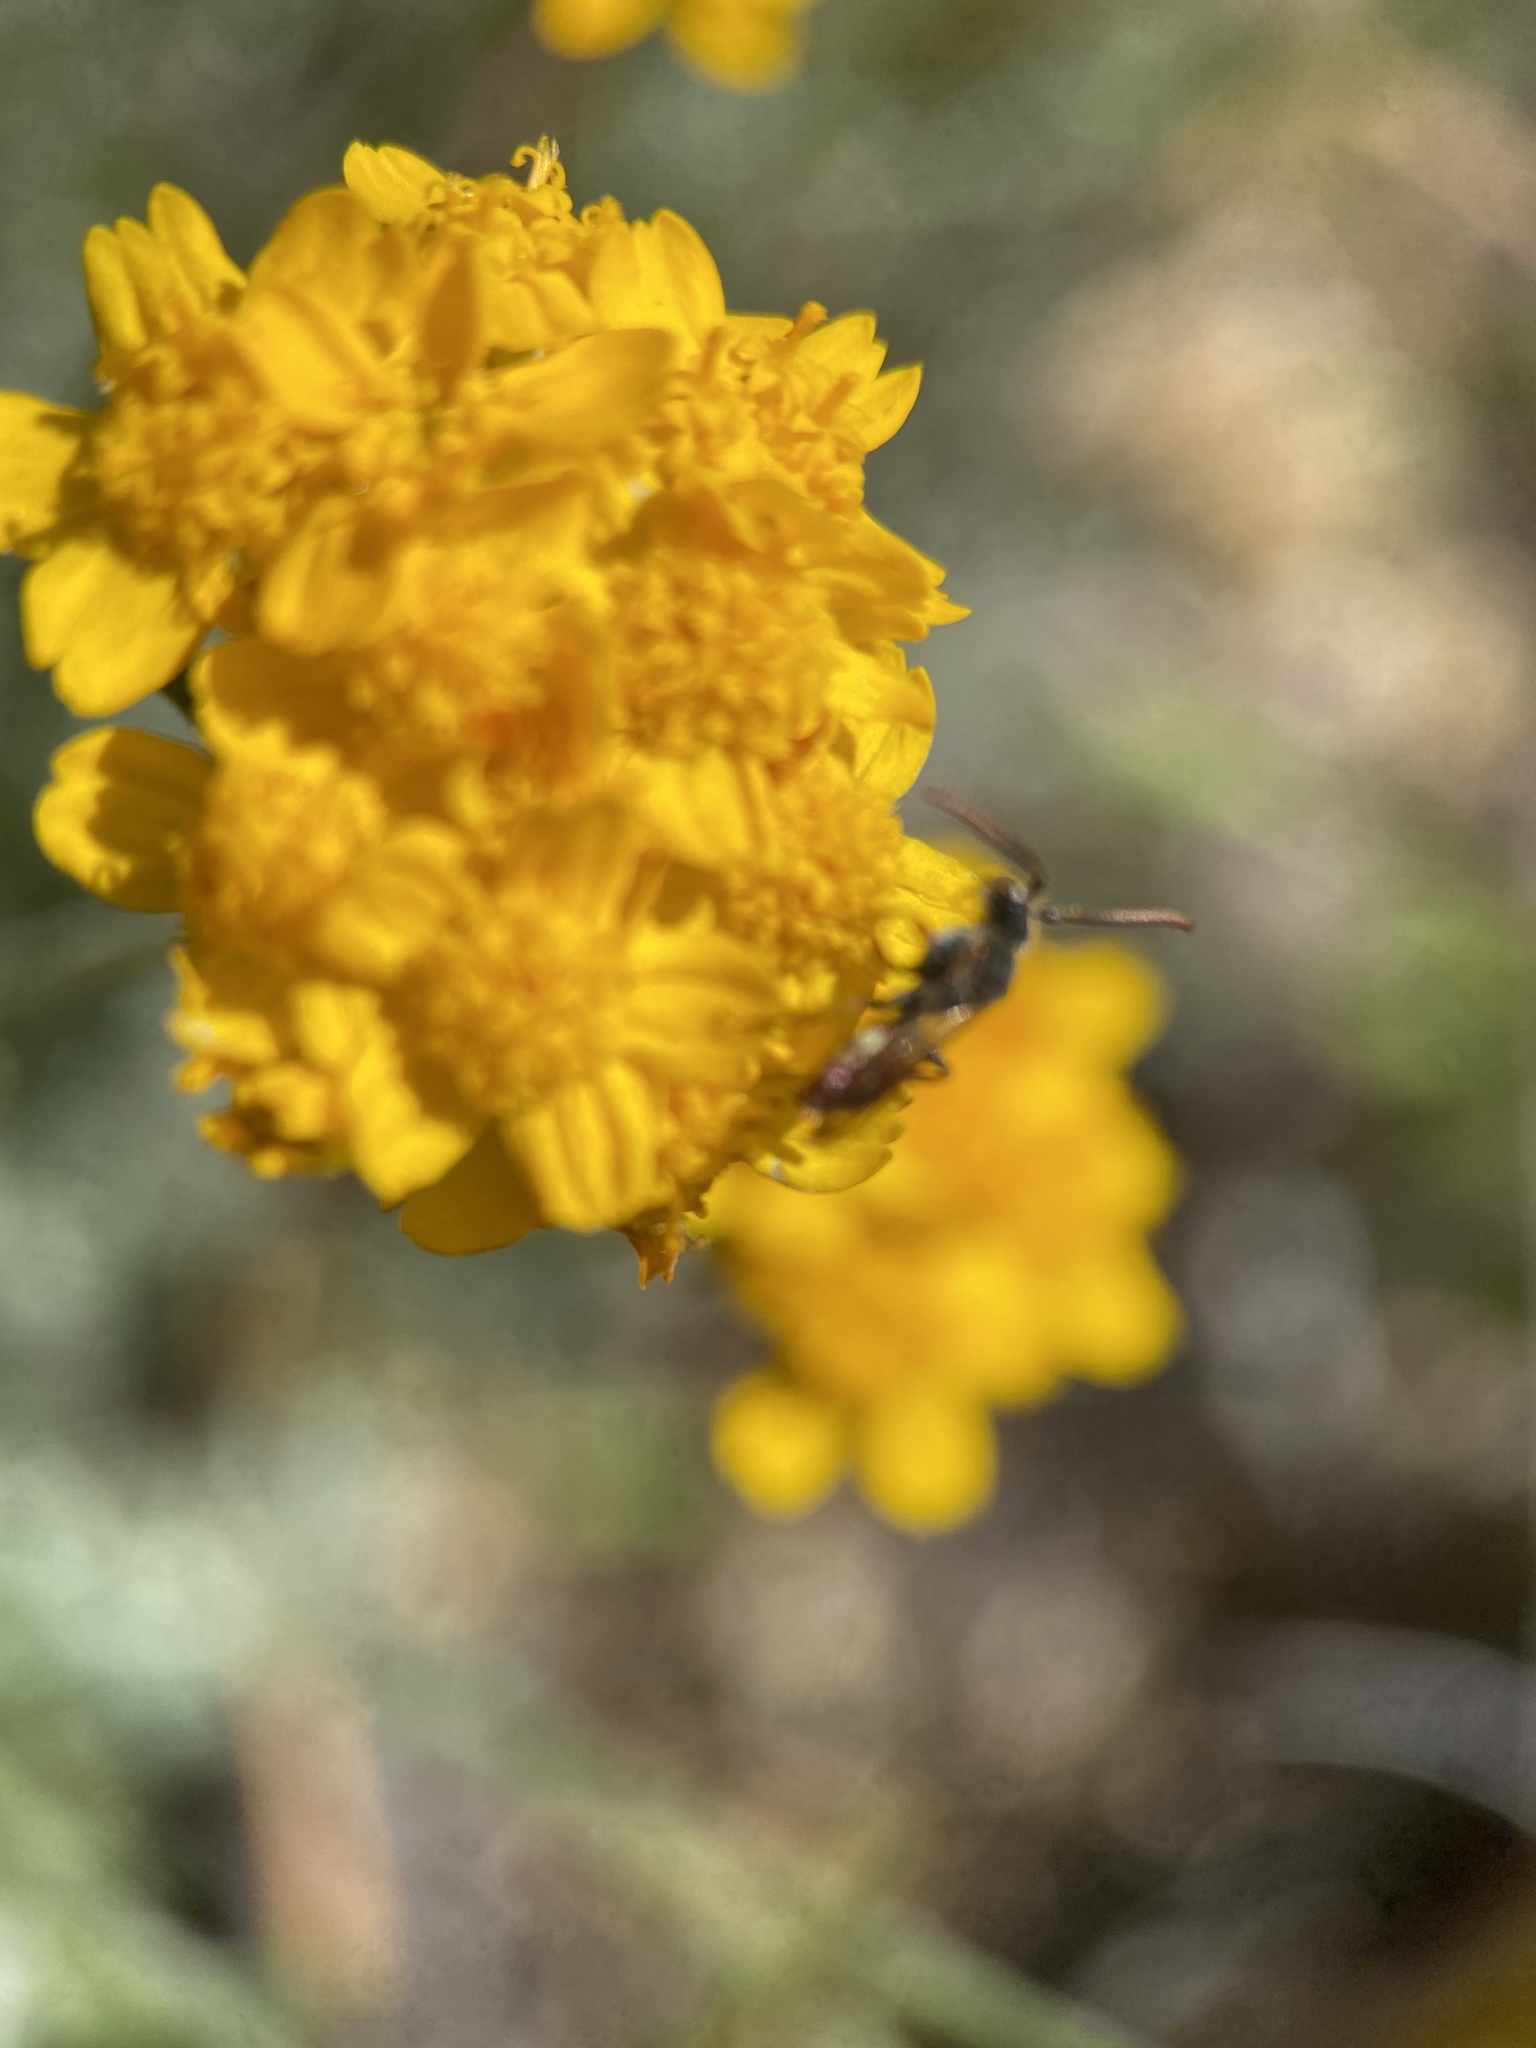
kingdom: Plantae
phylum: Tracheophyta
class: Magnoliopsida
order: Asterales
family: Asteraceae
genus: Eriophyllum
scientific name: Eriophyllum confertiflorum
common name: Golden-yarrow
